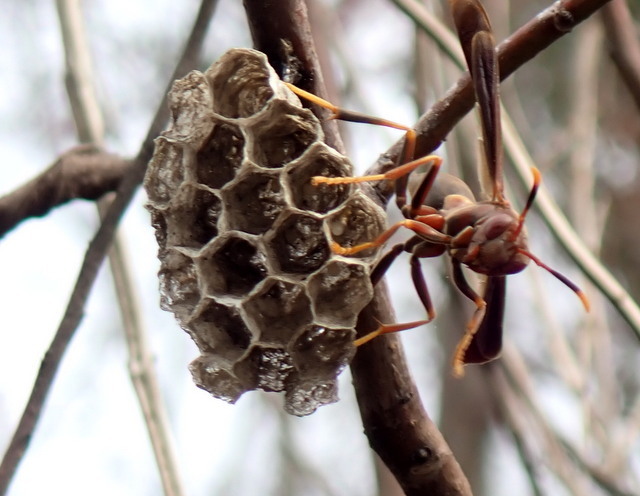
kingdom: Animalia
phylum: Arthropoda
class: Insecta
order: Hymenoptera
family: Eumenidae
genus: Polistes
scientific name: Polistes annularis
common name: Ringed paper wasp
